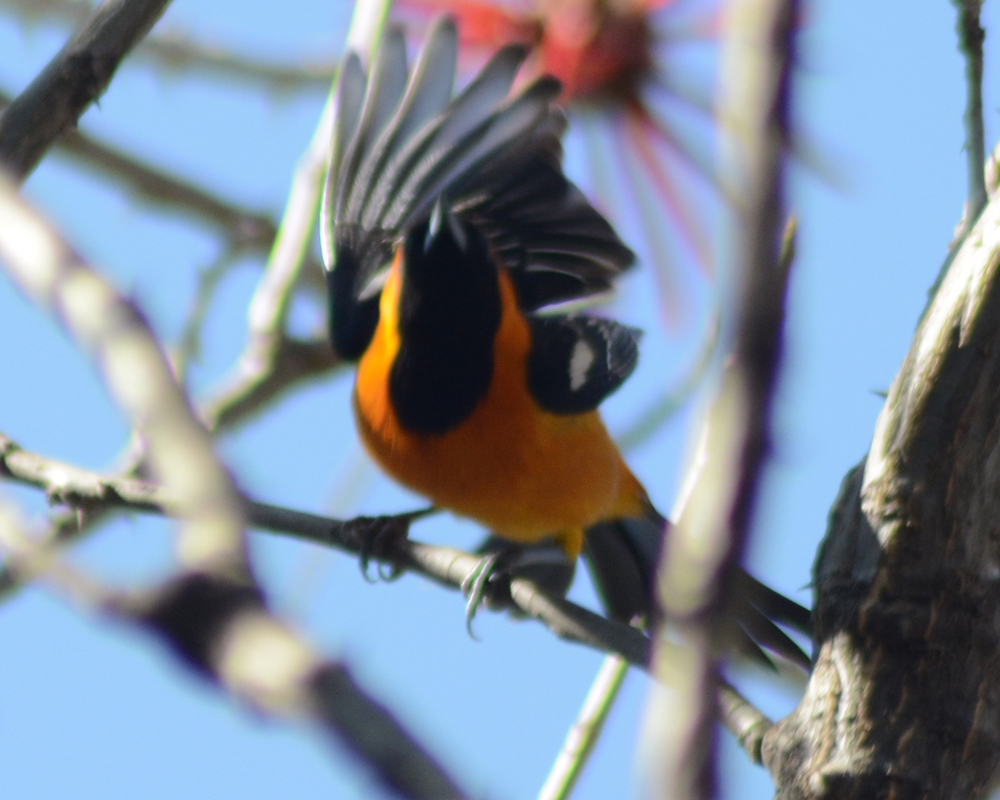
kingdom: Animalia
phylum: Chordata
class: Aves
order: Passeriformes
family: Icteridae
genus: Icterus
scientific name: Icterus cucullatus
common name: Hooded oriole
